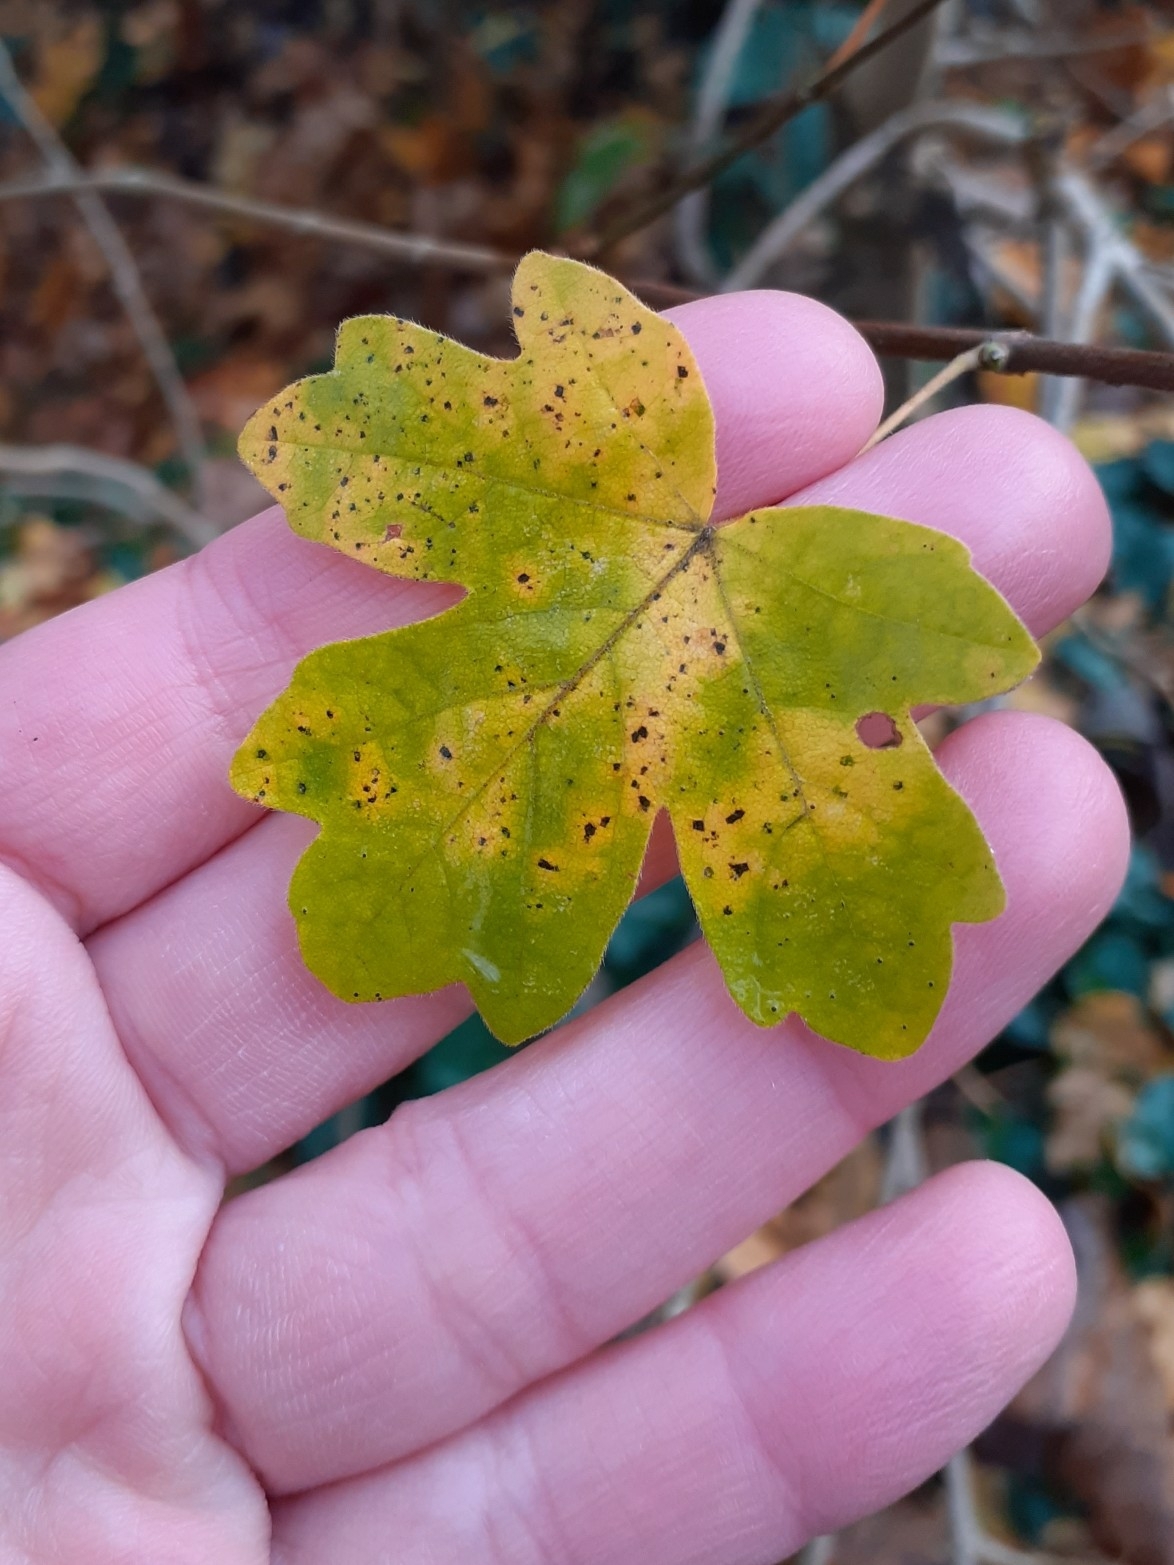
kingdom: Plantae
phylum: Tracheophyta
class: Magnoliopsida
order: Sapindales
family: Sapindaceae
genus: Acer
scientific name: Acer campestre
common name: Field maple
